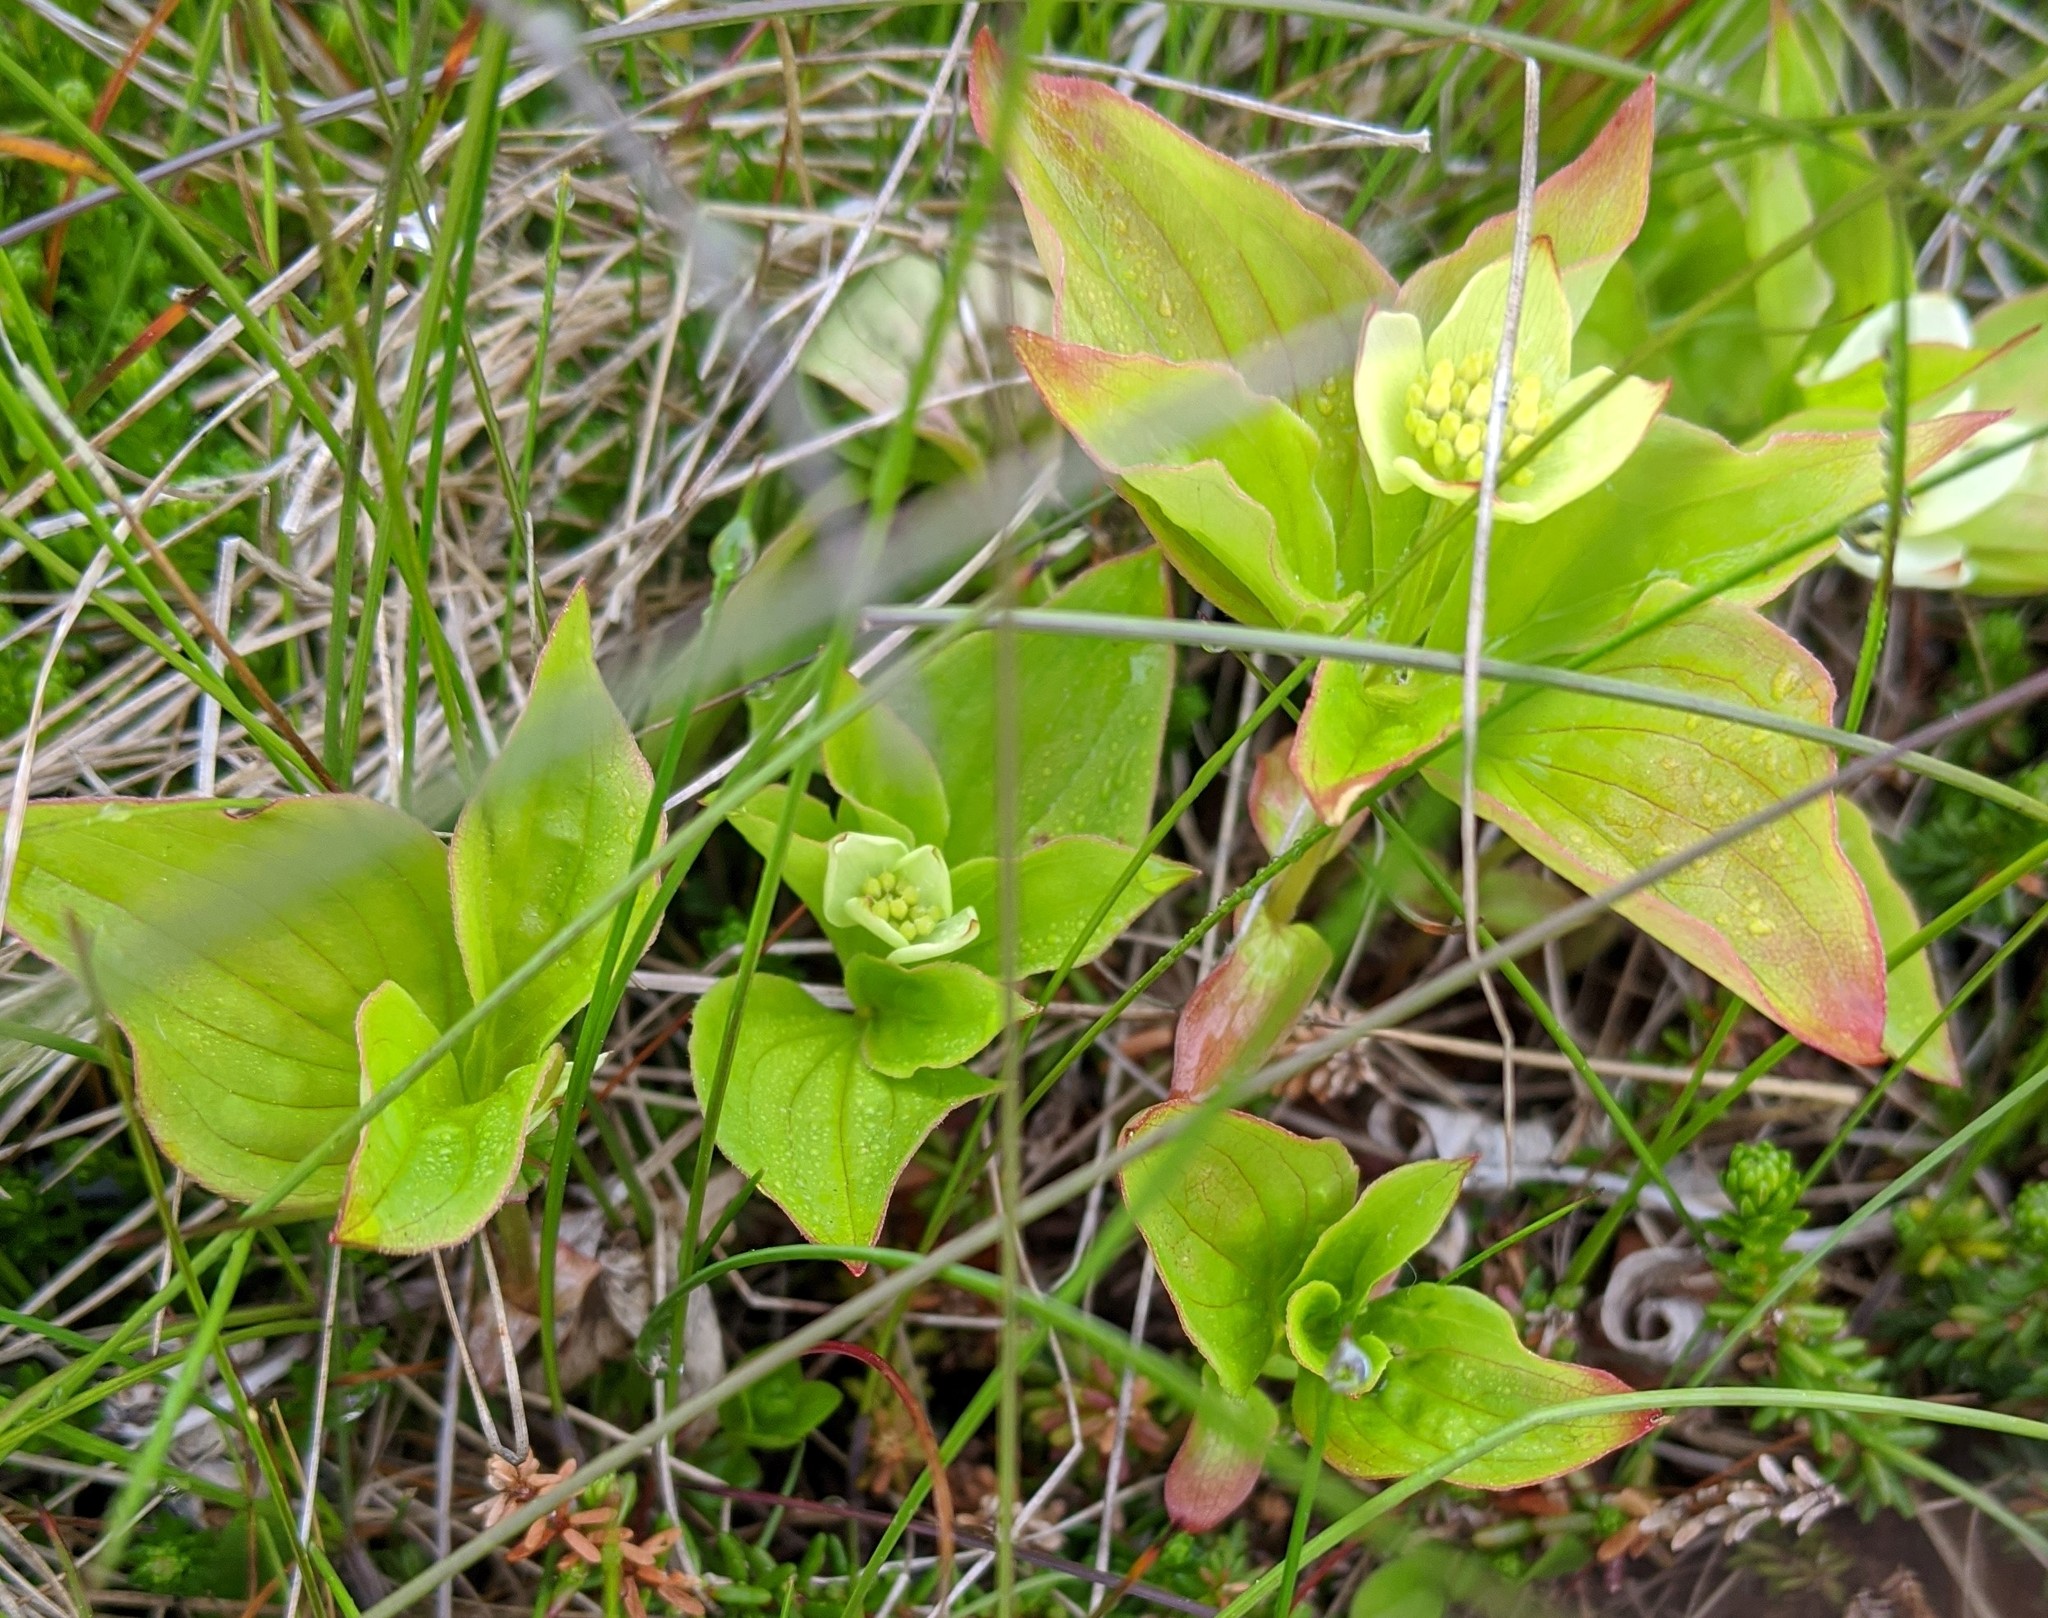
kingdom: Plantae
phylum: Tracheophyta
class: Magnoliopsida
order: Cornales
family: Cornaceae
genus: Cornus
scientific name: Cornus canadensis
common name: Creeping dogwood
